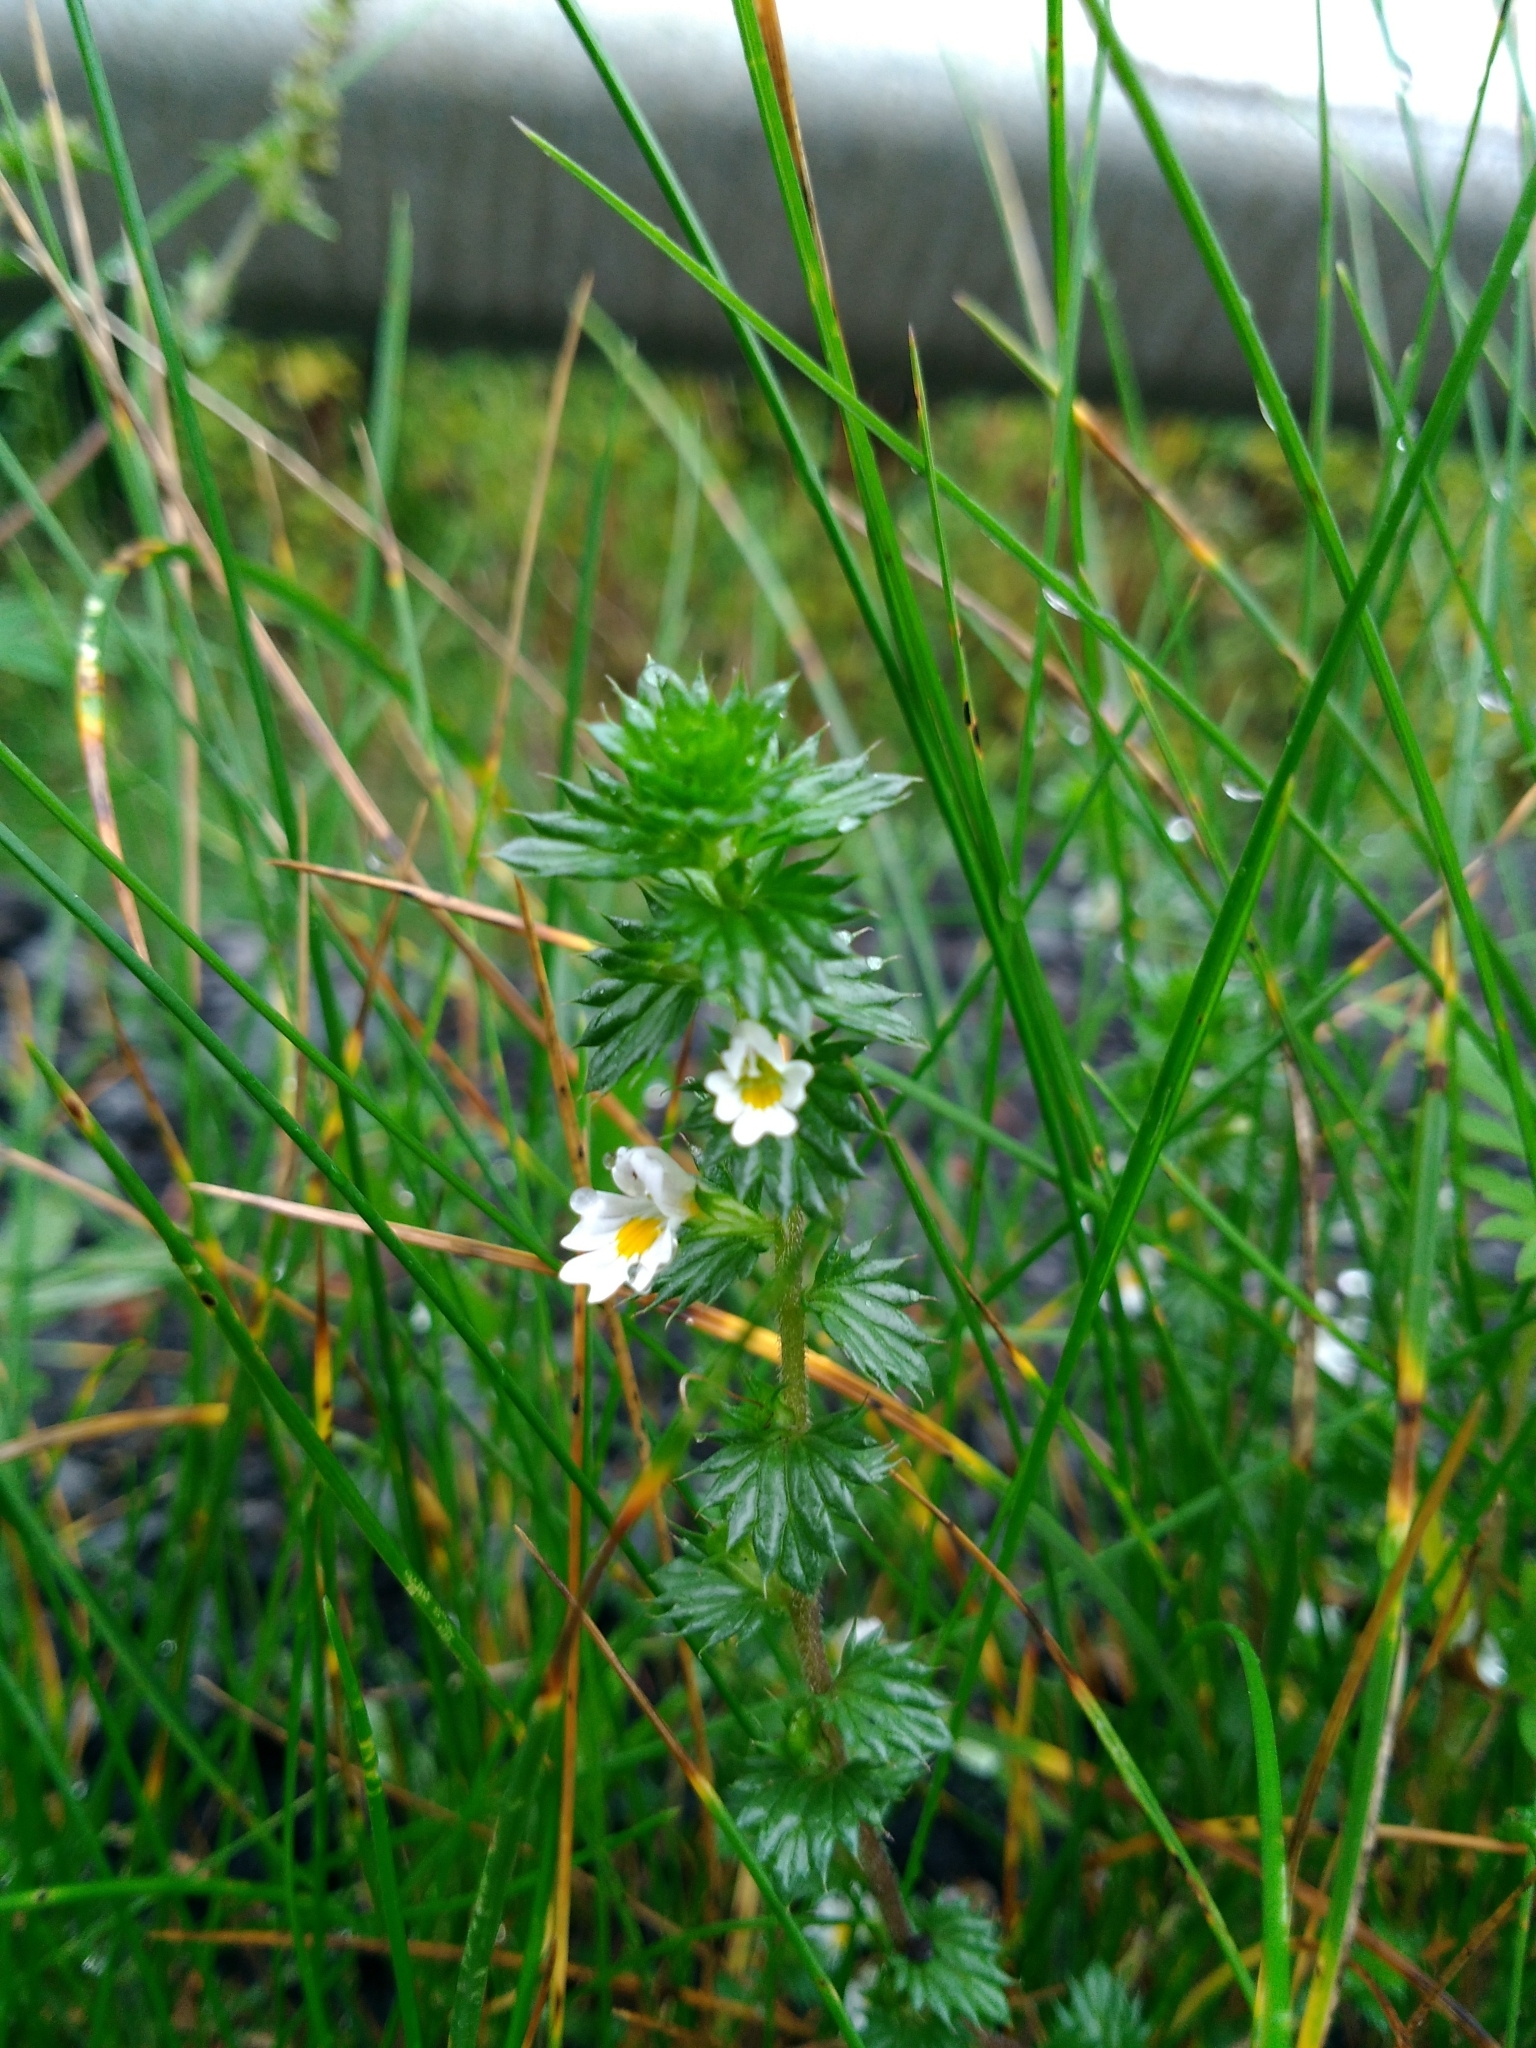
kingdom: Plantae
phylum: Tracheophyta
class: Magnoliopsida
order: Lamiales
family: Orobanchaceae
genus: Euphrasia
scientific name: Euphrasia nemorosa
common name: Common eyebright
